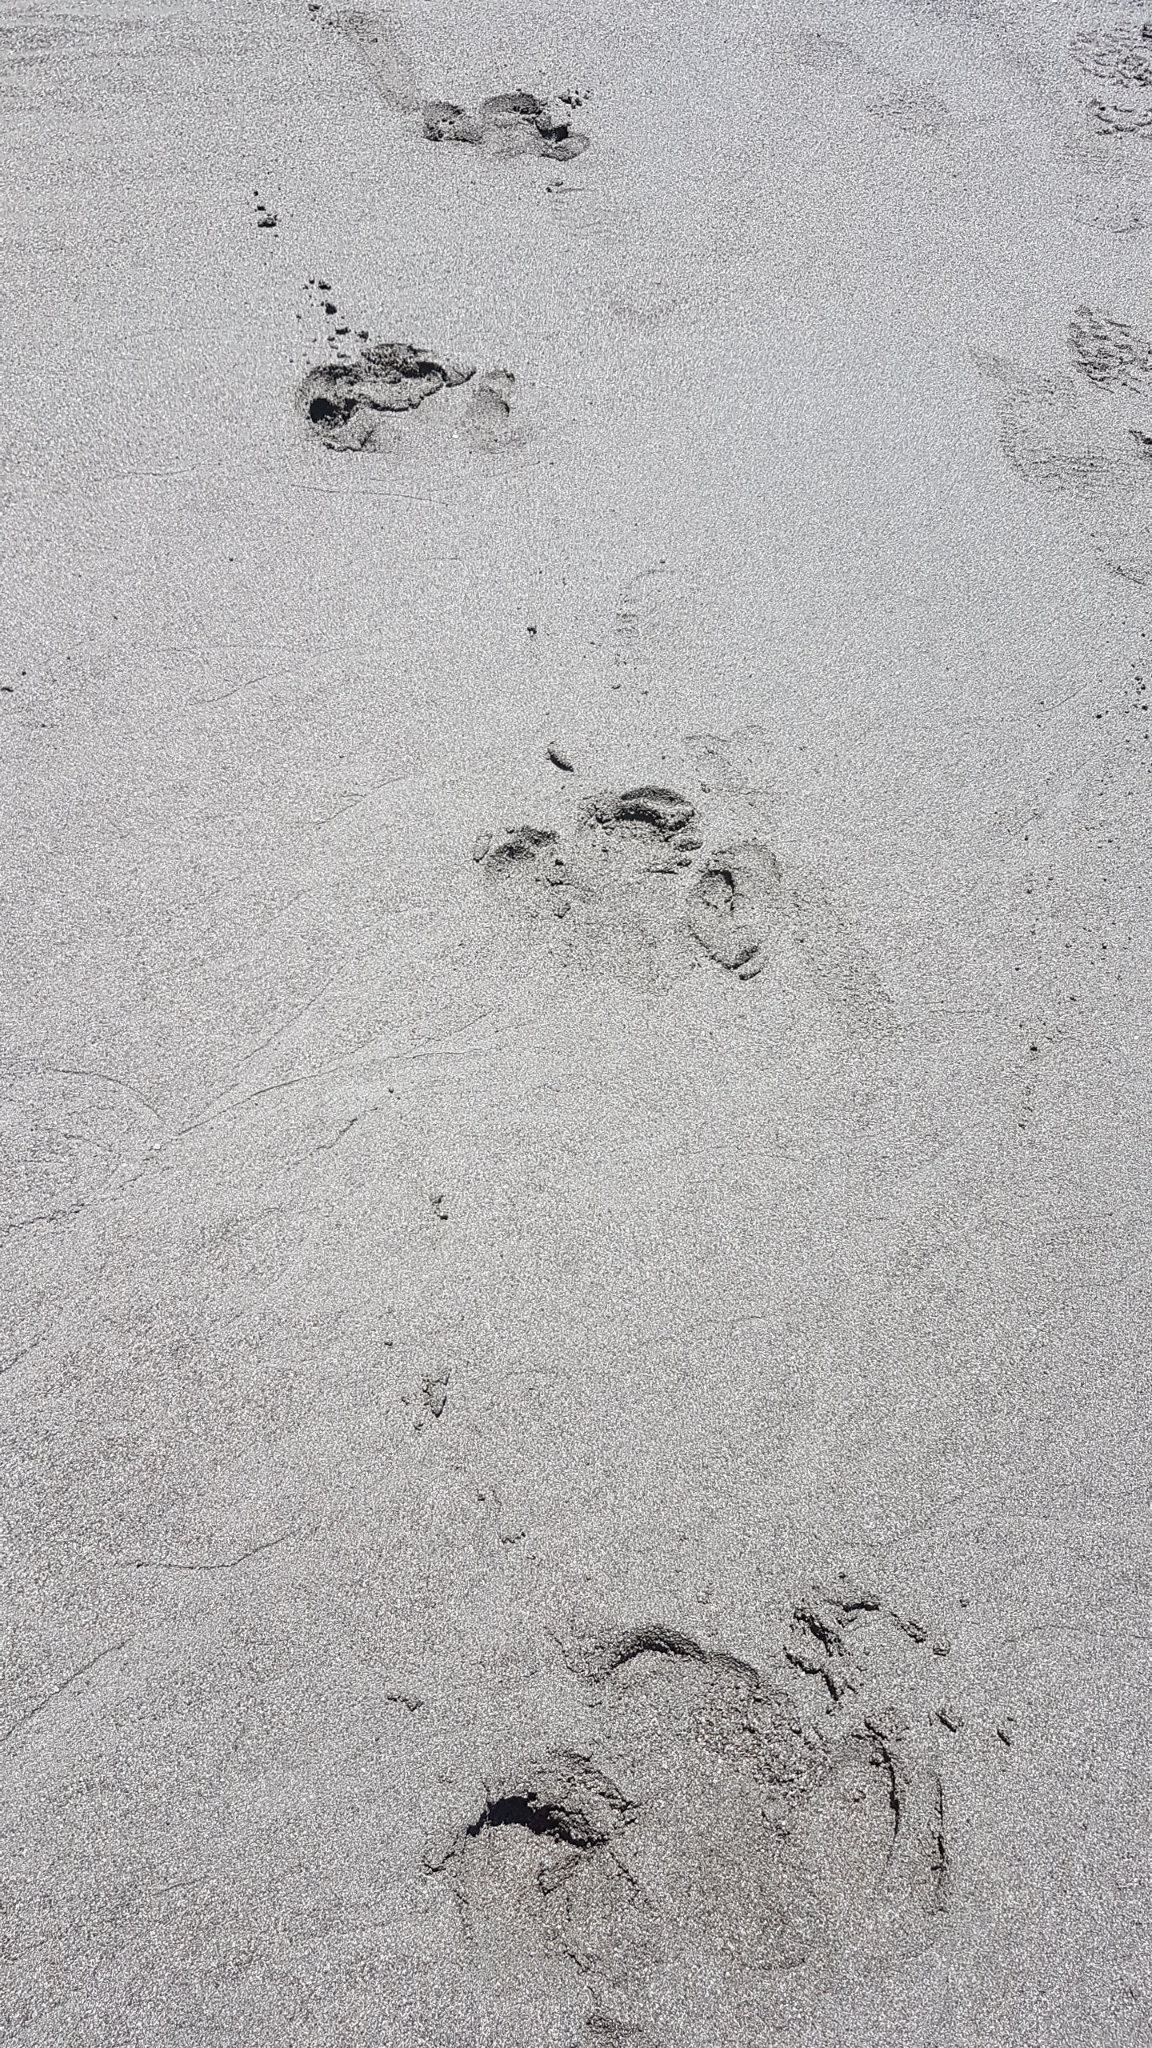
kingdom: Animalia
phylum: Chordata
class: Mammalia
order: Perissodactyla
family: Tapiridae
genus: Tapirella
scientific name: Tapirella bairdii
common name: Baird's tapir
